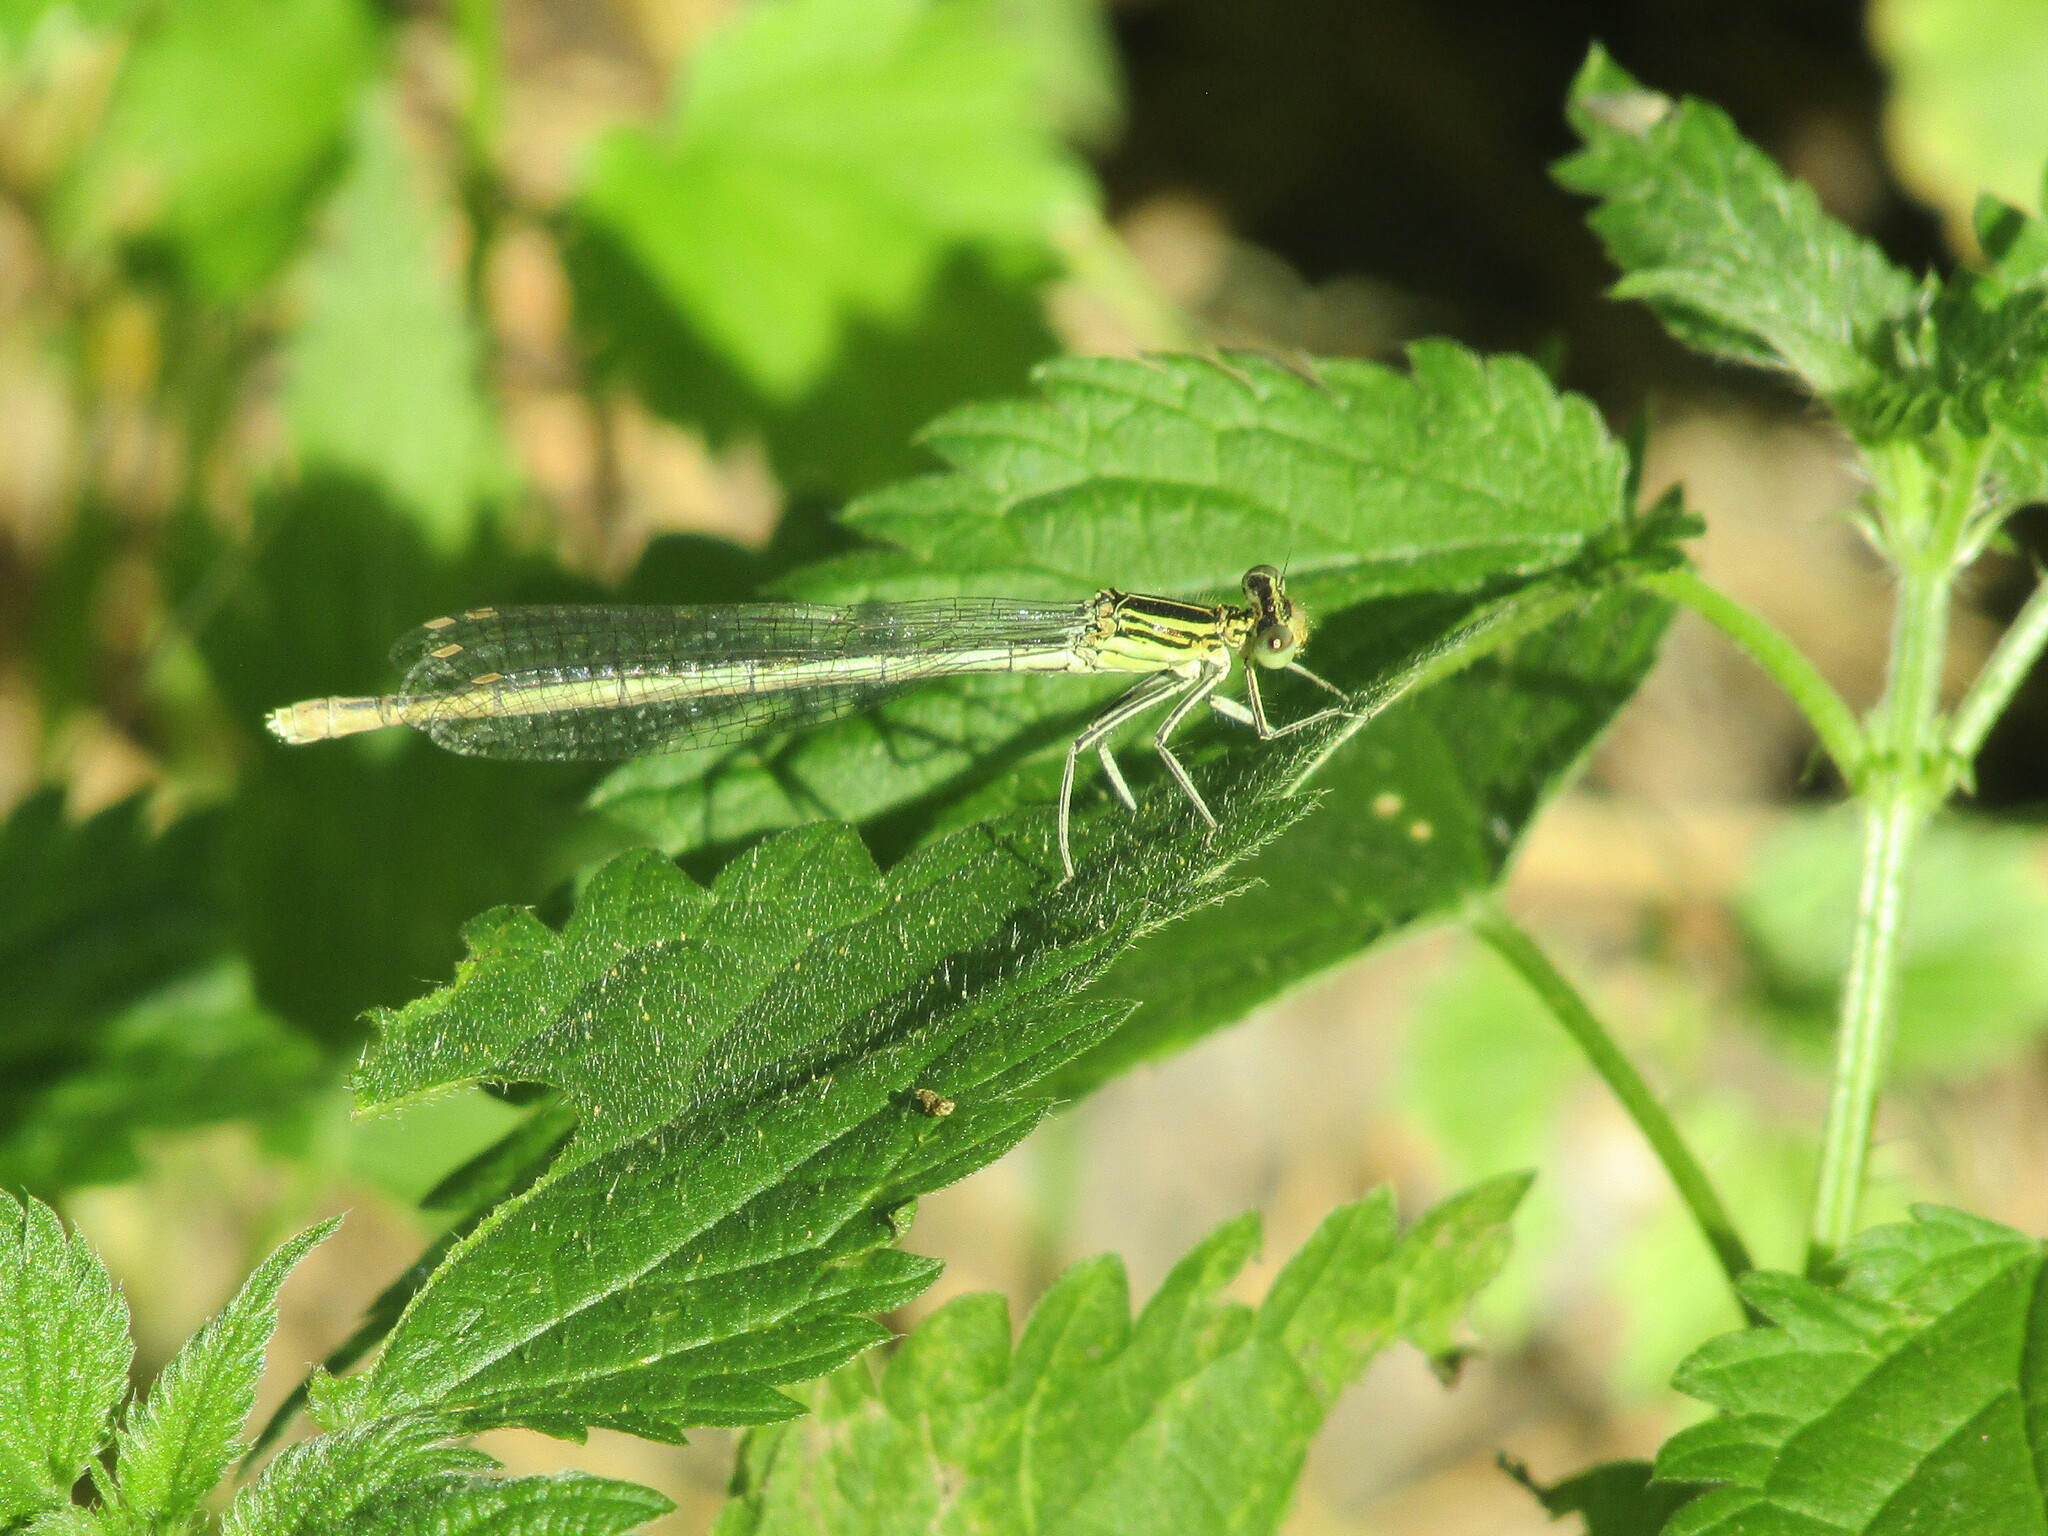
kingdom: Animalia
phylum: Arthropoda
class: Insecta
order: Odonata
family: Platycnemididae
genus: Platycnemis
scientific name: Platycnemis pennipes
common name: White-legged damselfly
